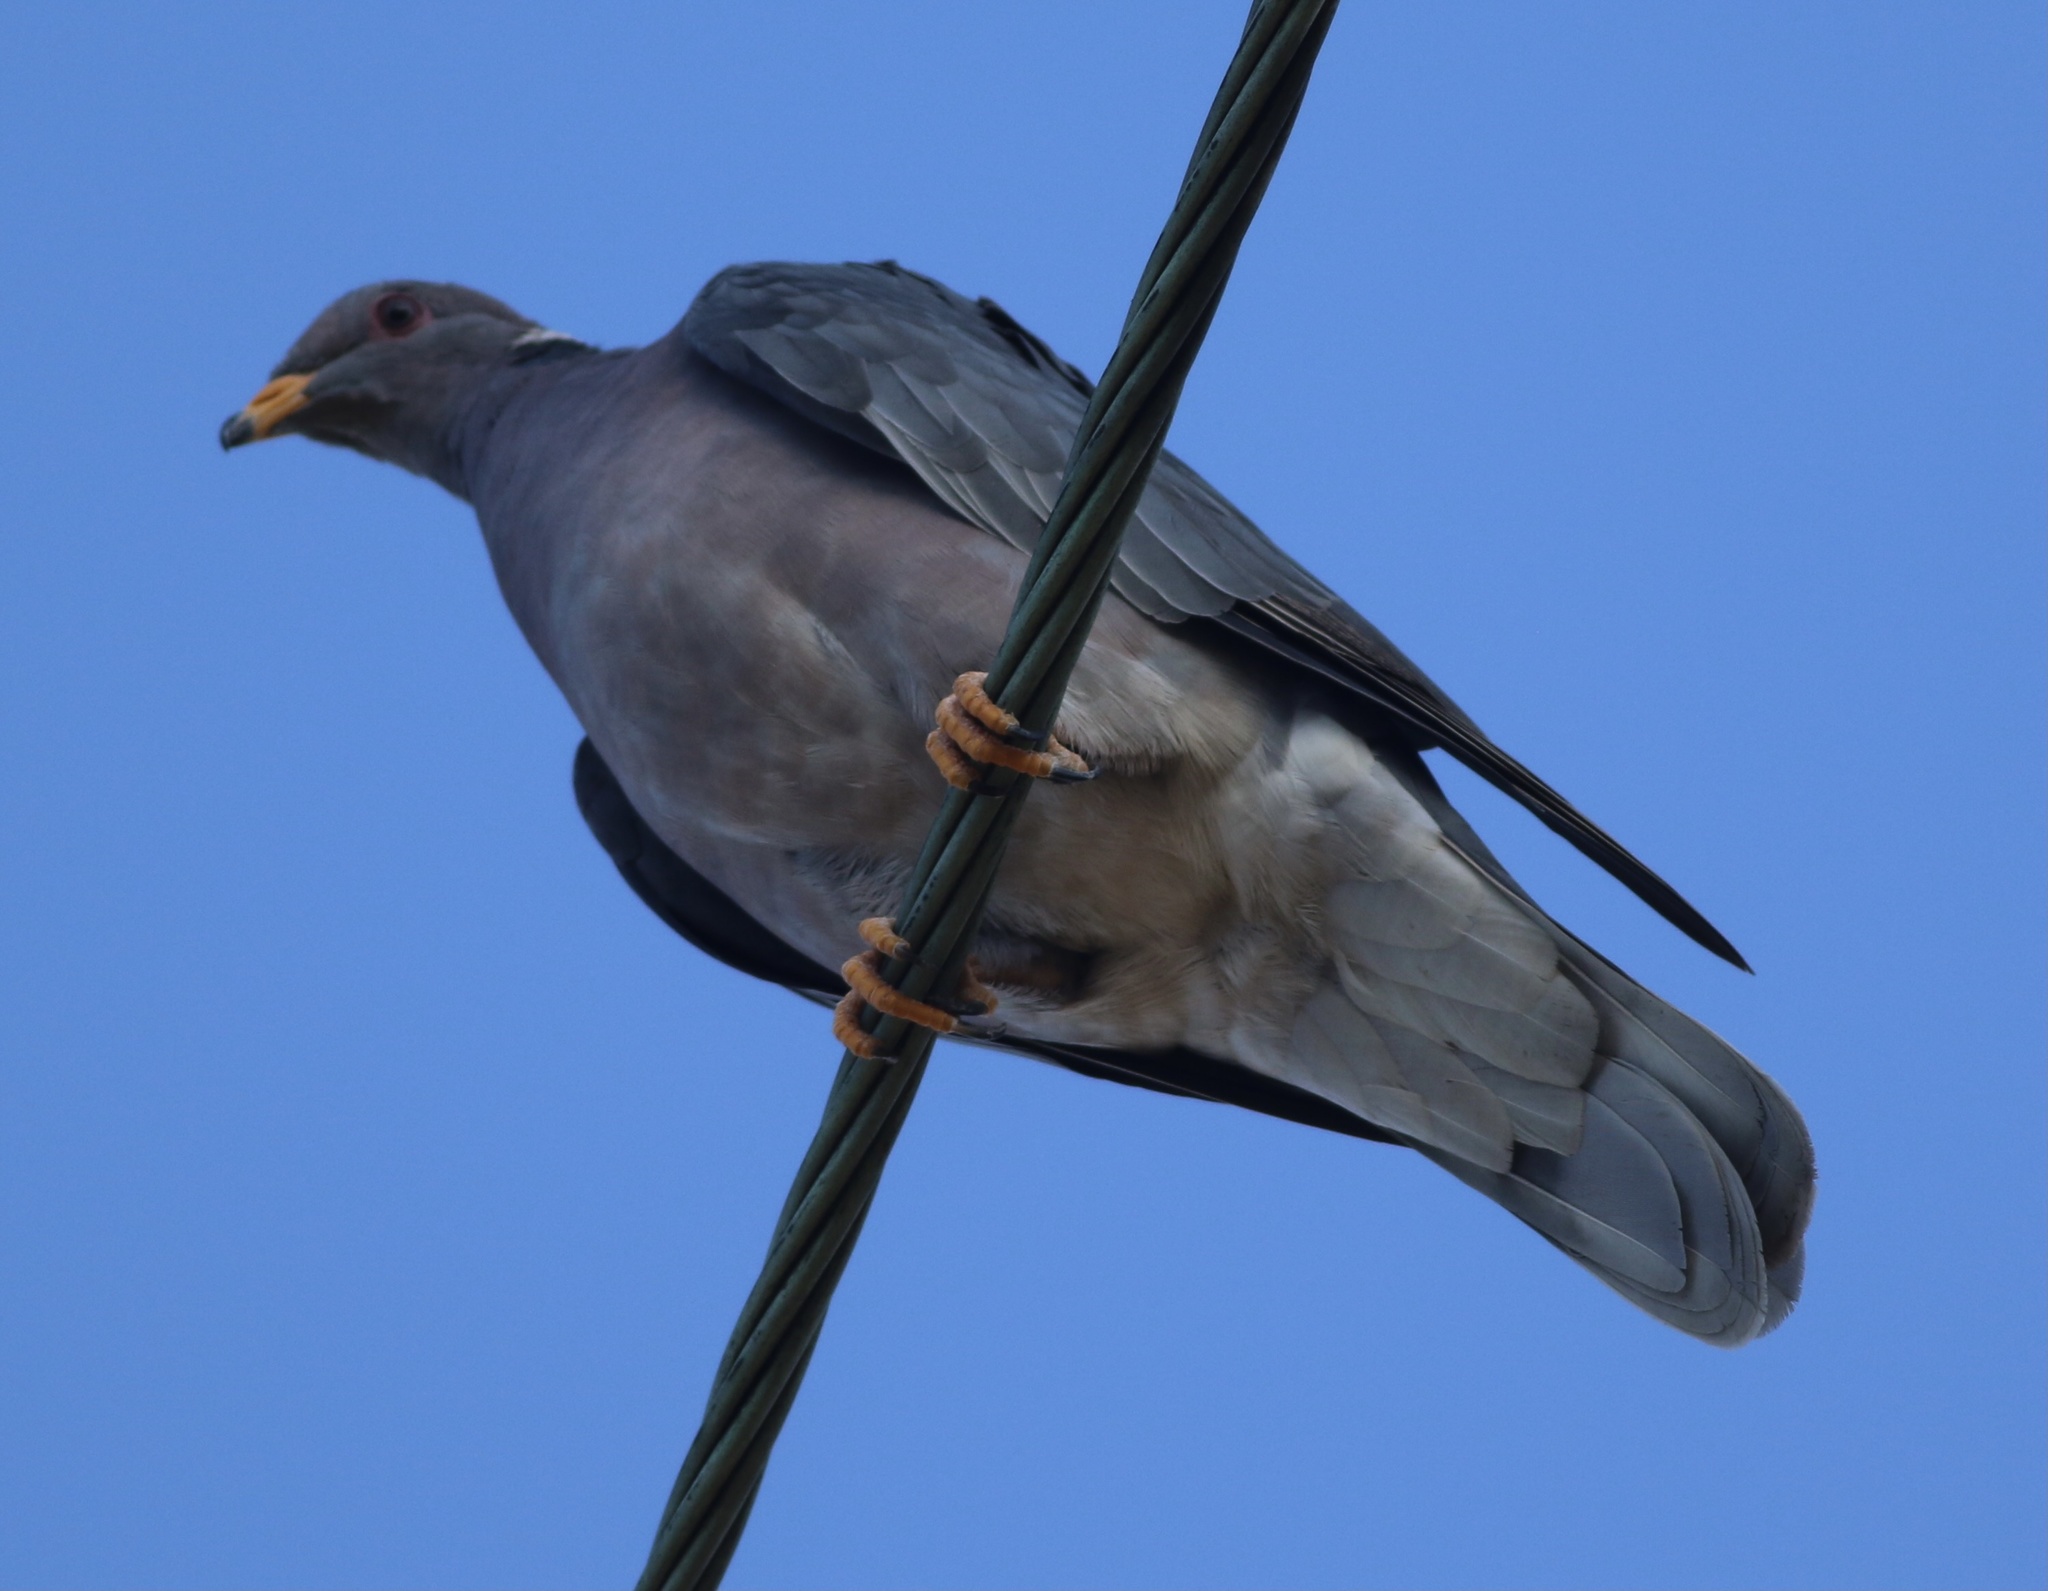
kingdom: Animalia
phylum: Chordata
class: Aves
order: Columbiformes
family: Columbidae
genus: Patagioenas
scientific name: Patagioenas fasciata
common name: Band-tailed pigeon
